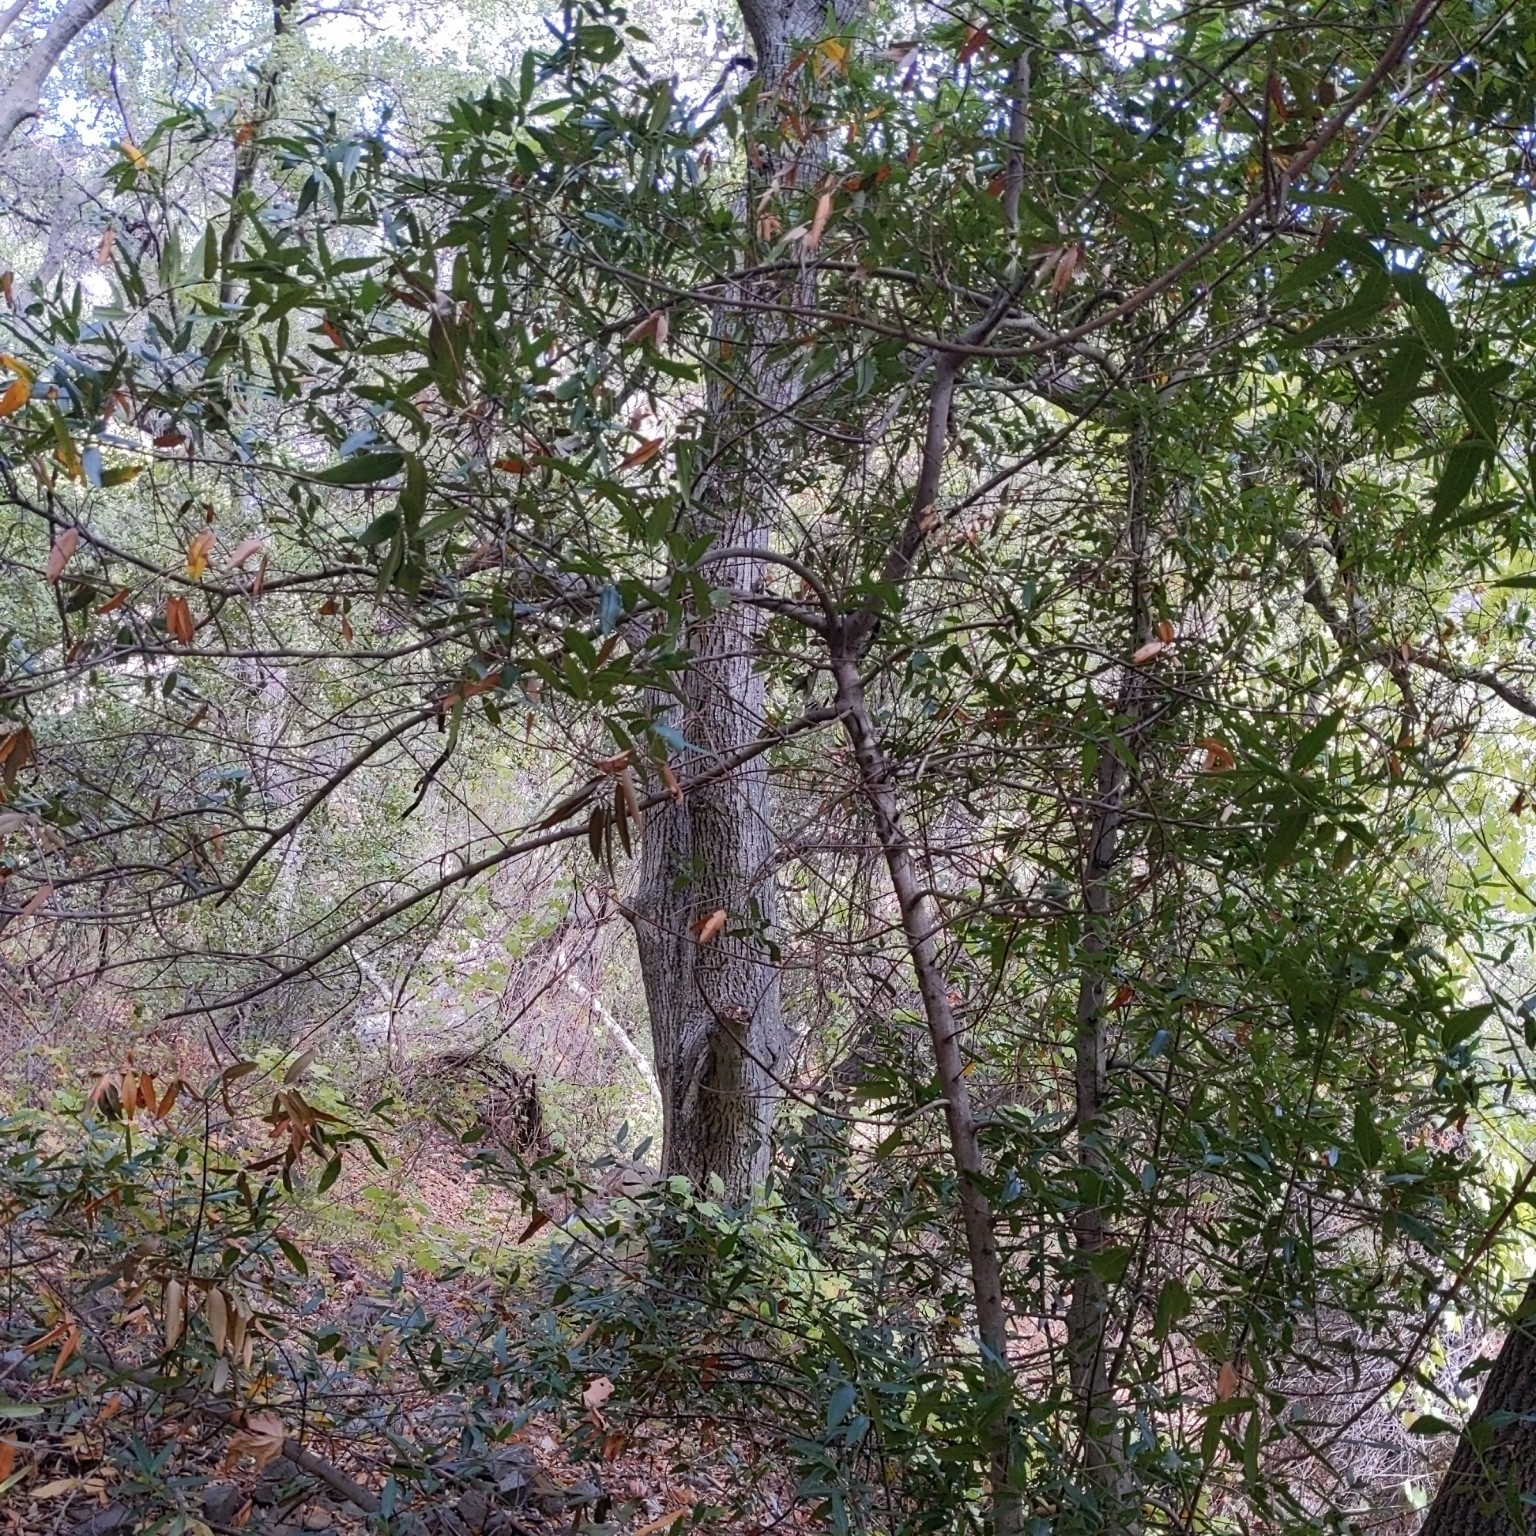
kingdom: Plantae
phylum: Tracheophyta
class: Magnoliopsida
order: Laurales
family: Lauraceae
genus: Umbellularia
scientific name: Umbellularia californica
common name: California bay
